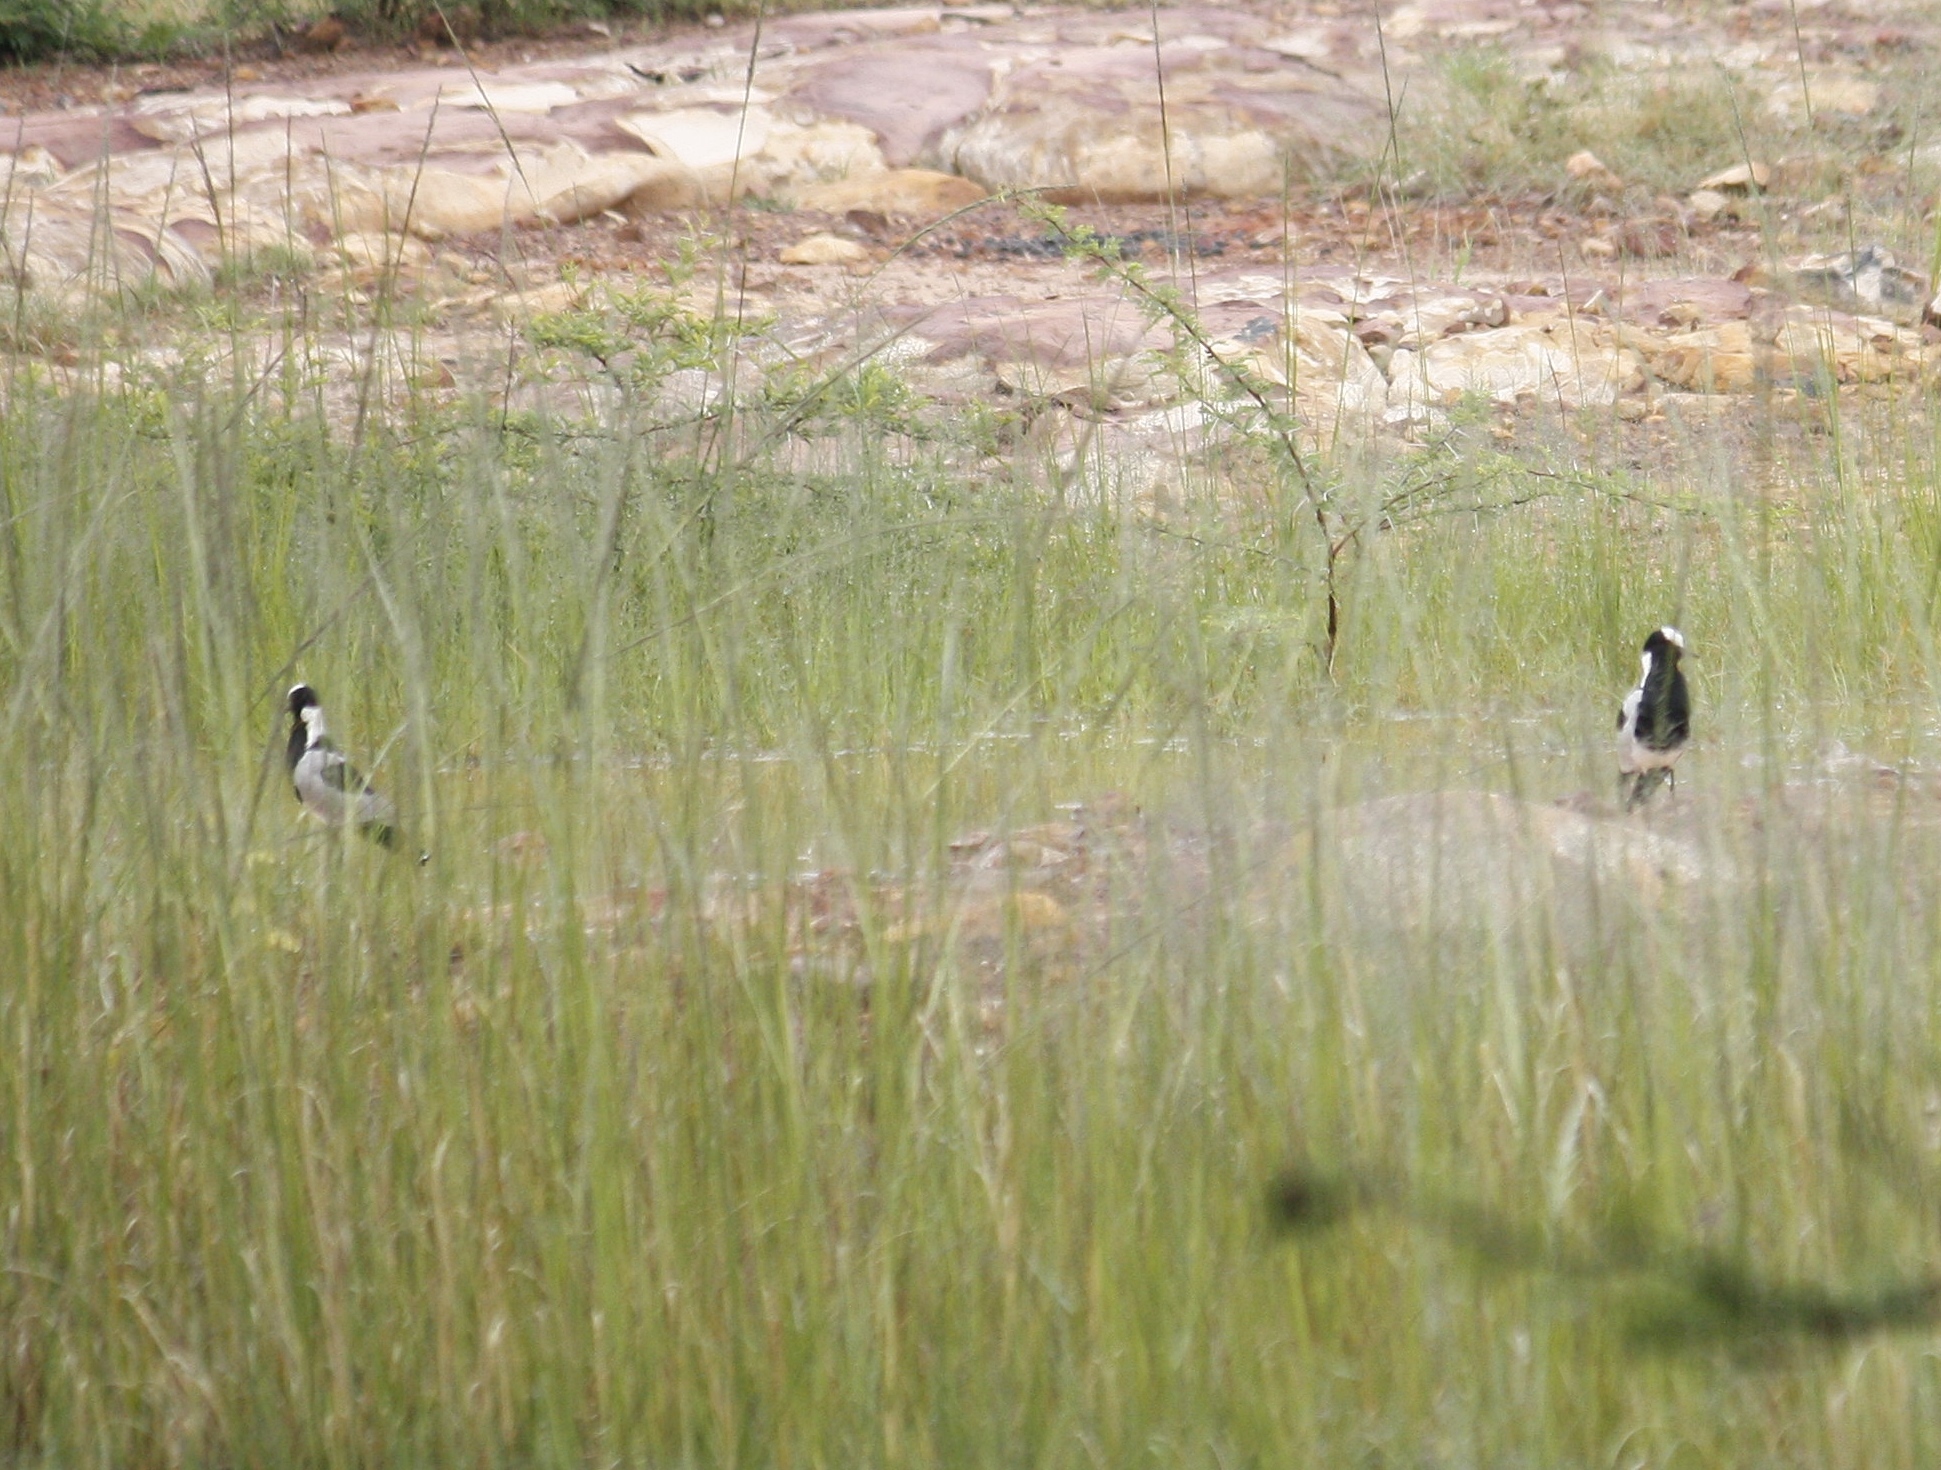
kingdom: Animalia
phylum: Chordata
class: Aves
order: Charadriiformes
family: Charadriidae
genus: Vanellus
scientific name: Vanellus armatus
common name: Blacksmith lapwing
